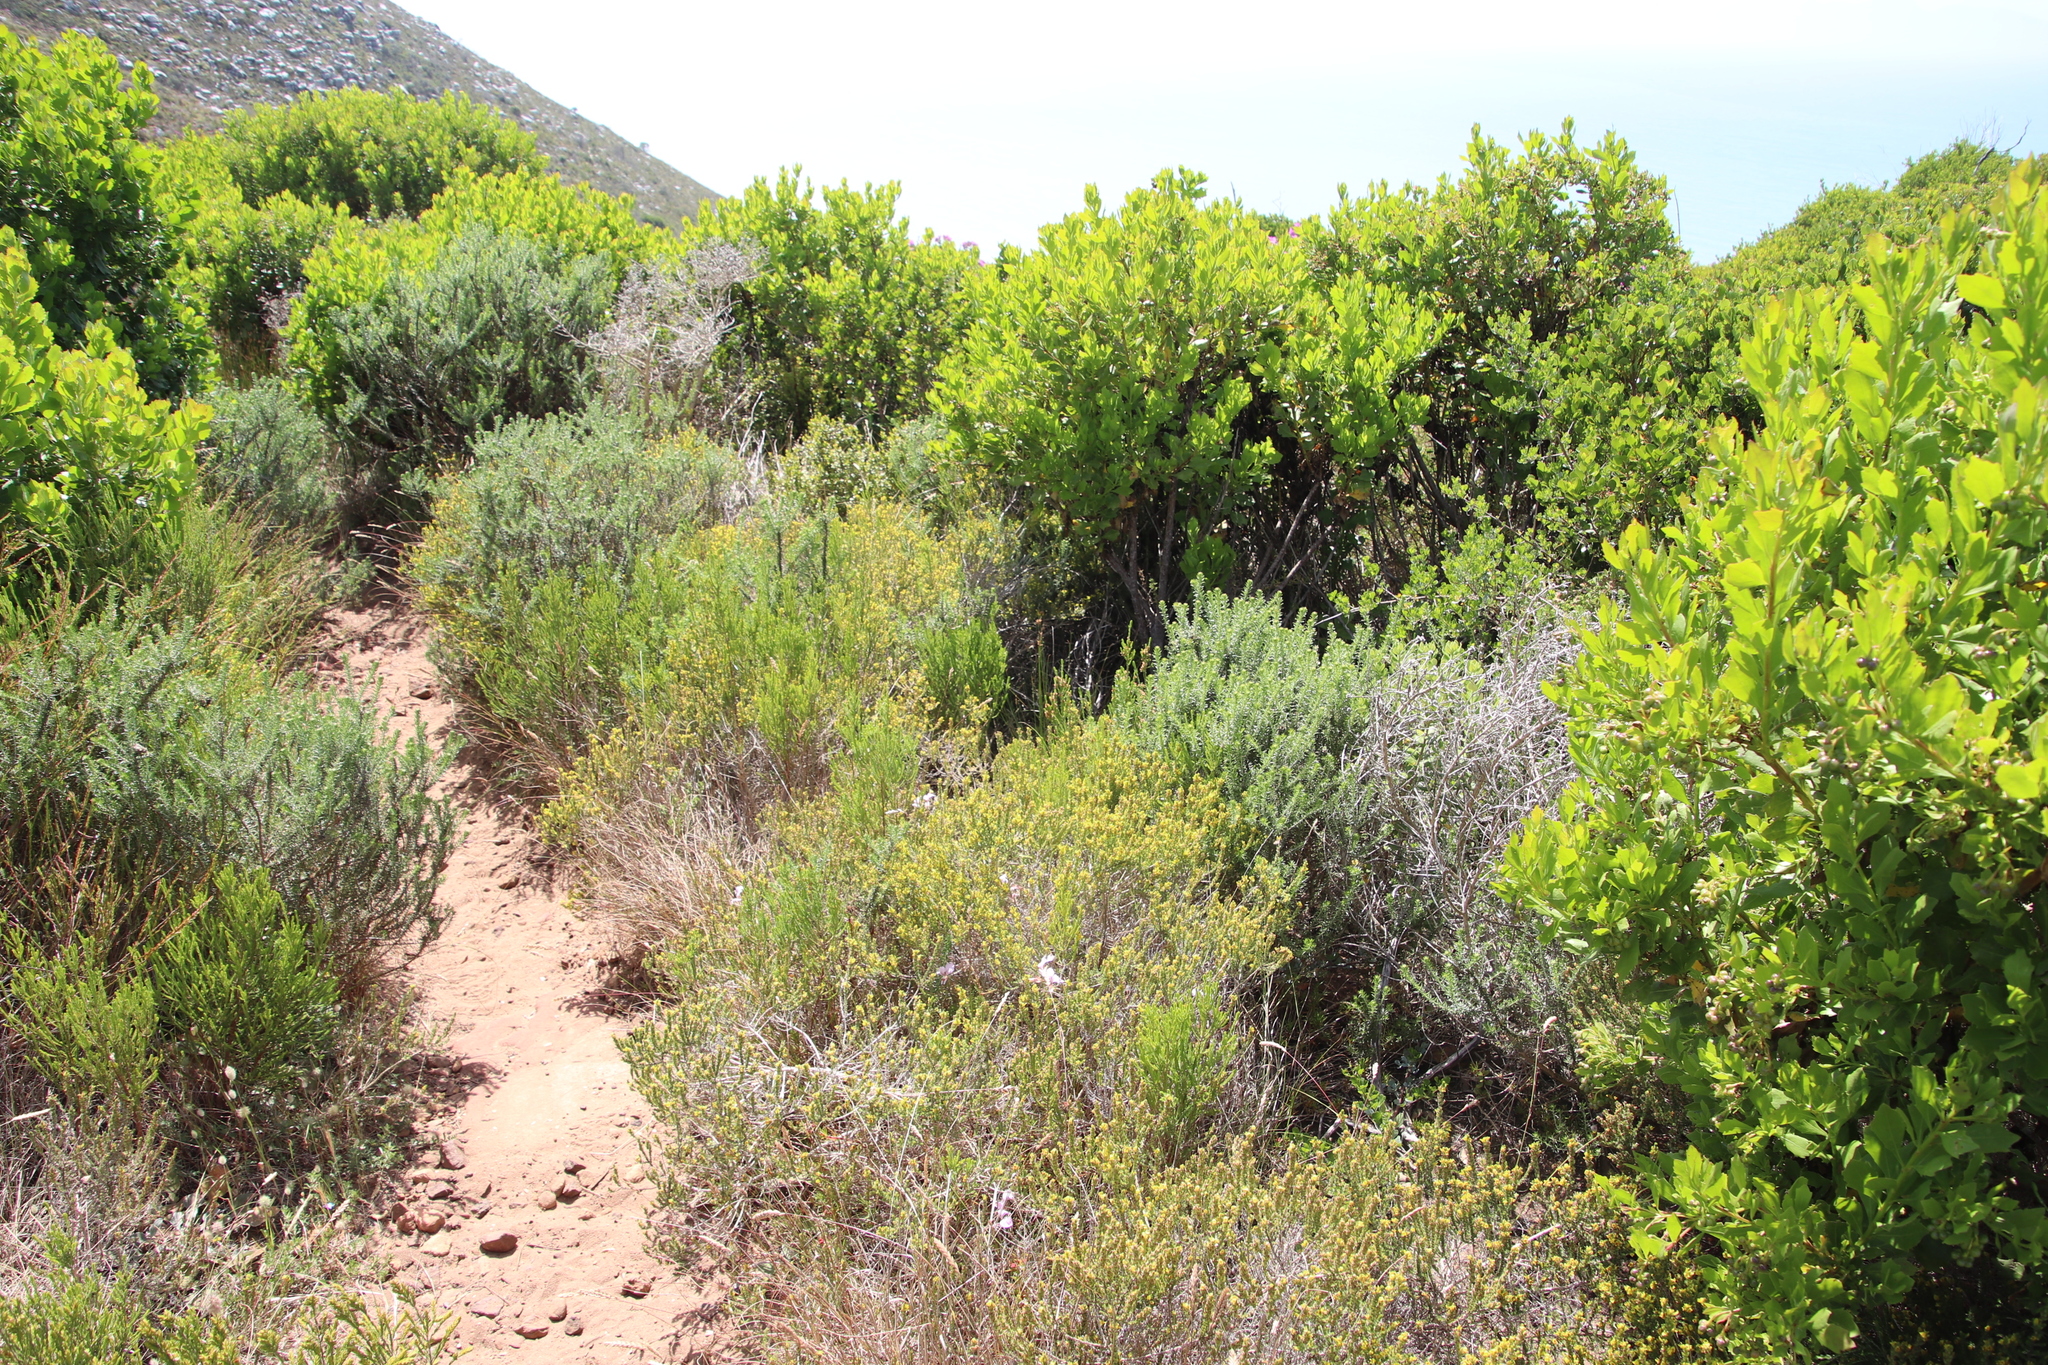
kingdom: Plantae
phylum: Tracheophyta
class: Magnoliopsida
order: Fabales
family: Fabaceae
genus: Aspalathus
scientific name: Aspalathus ericifolia
